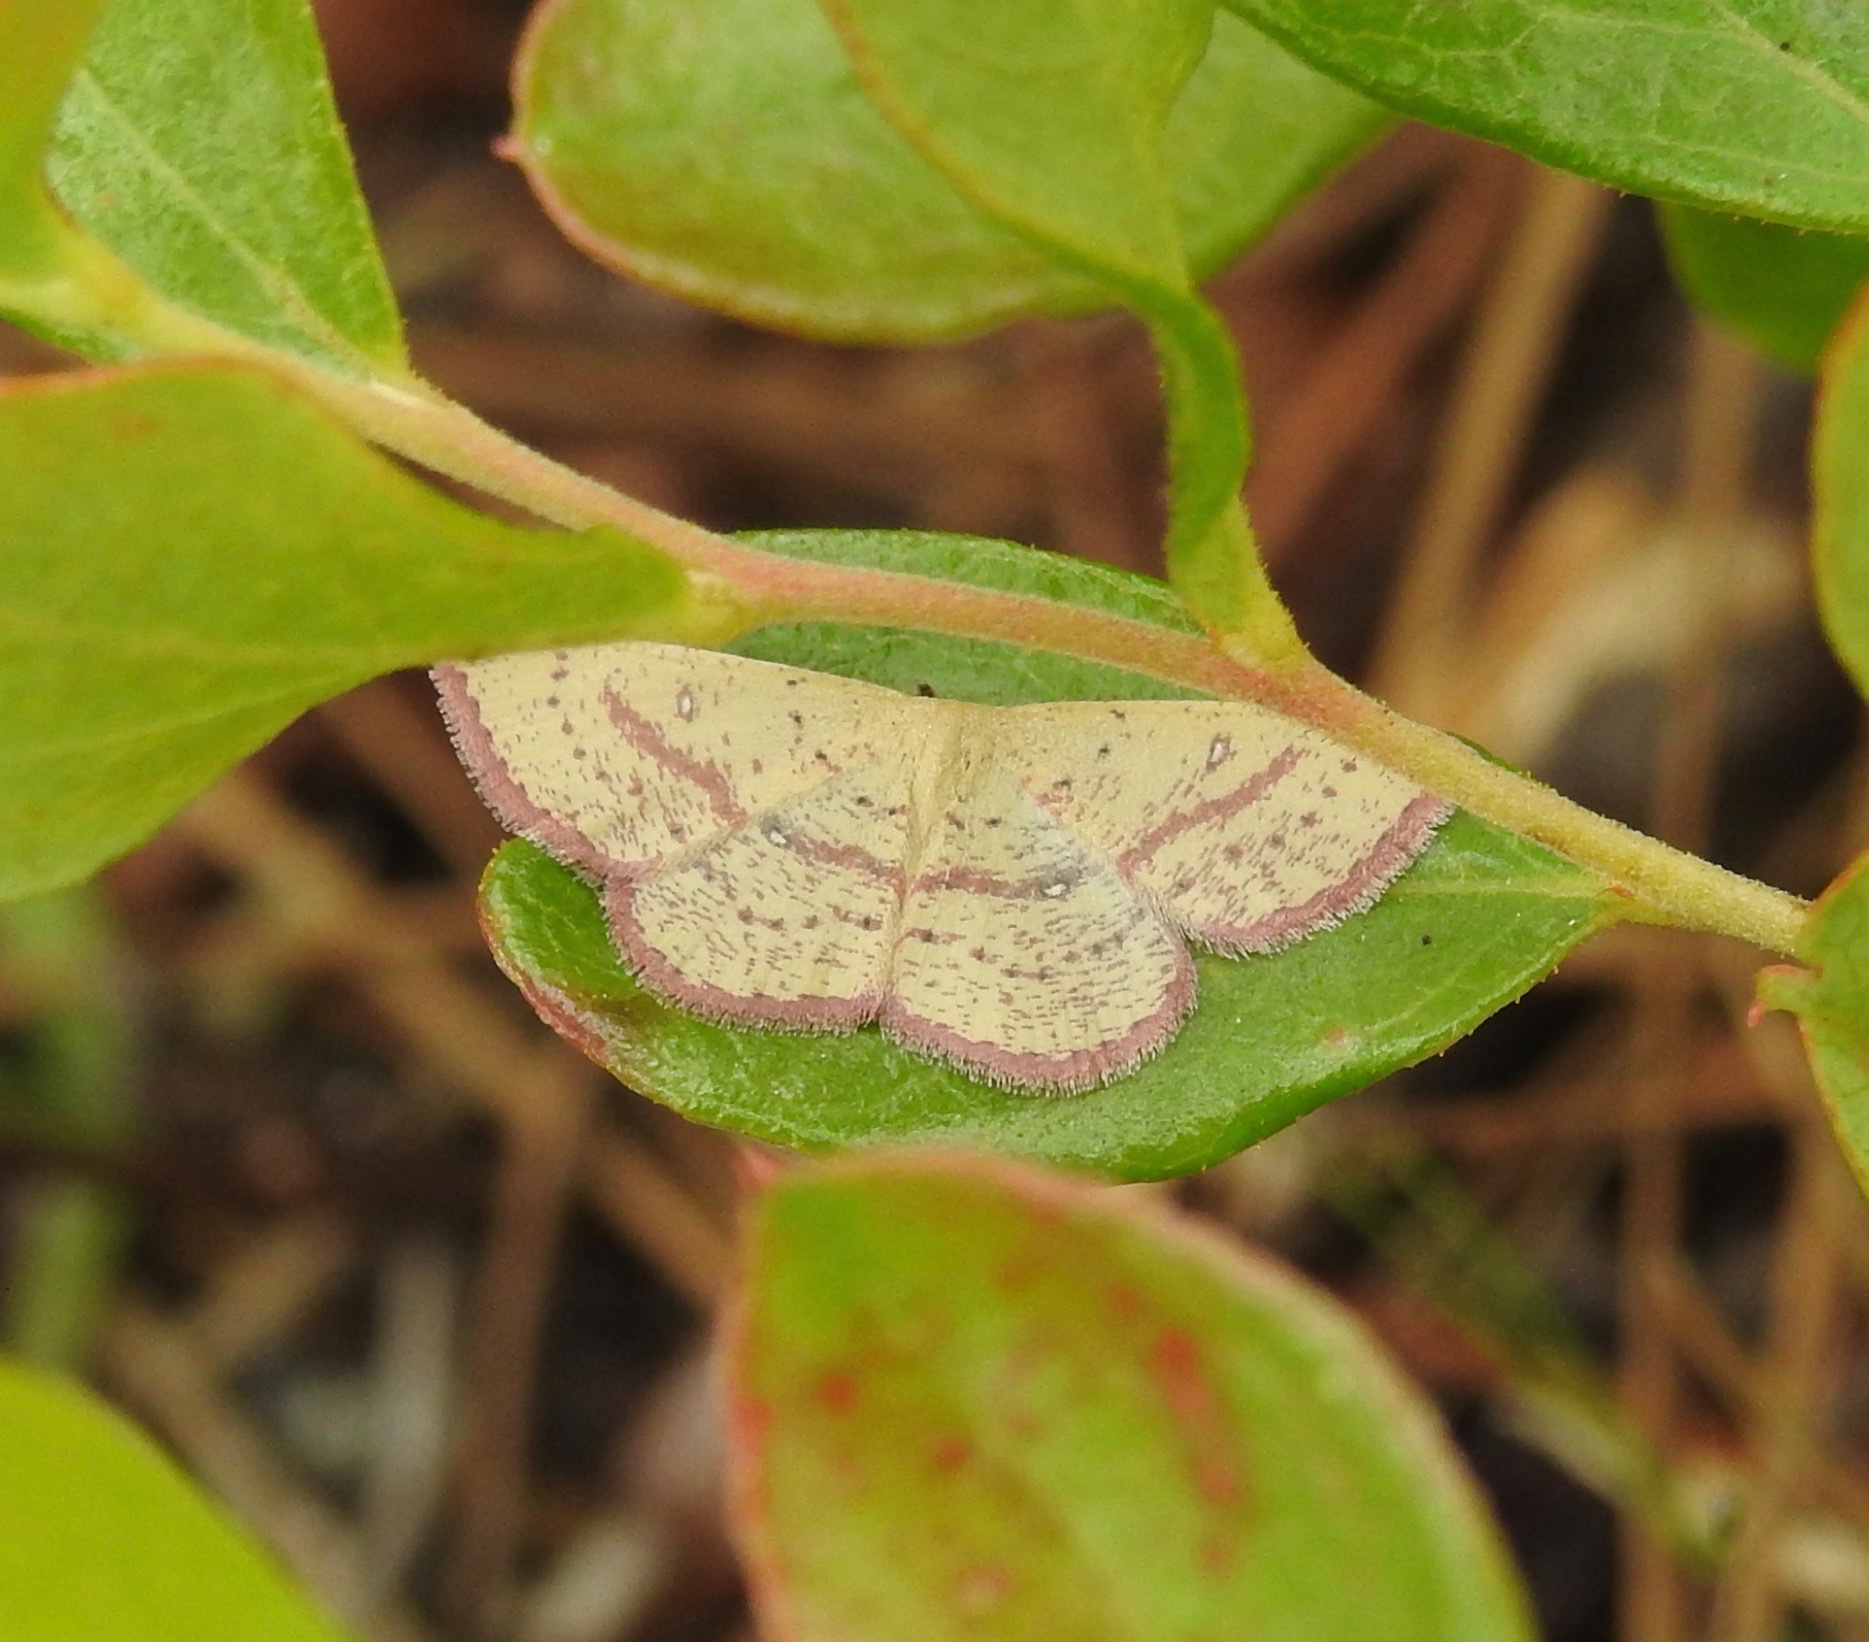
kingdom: Animalia
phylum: Arthropoda
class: Insecta
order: Lepidoptera
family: Geometridae
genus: Cyclophora
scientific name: Cyclophora culicaria
